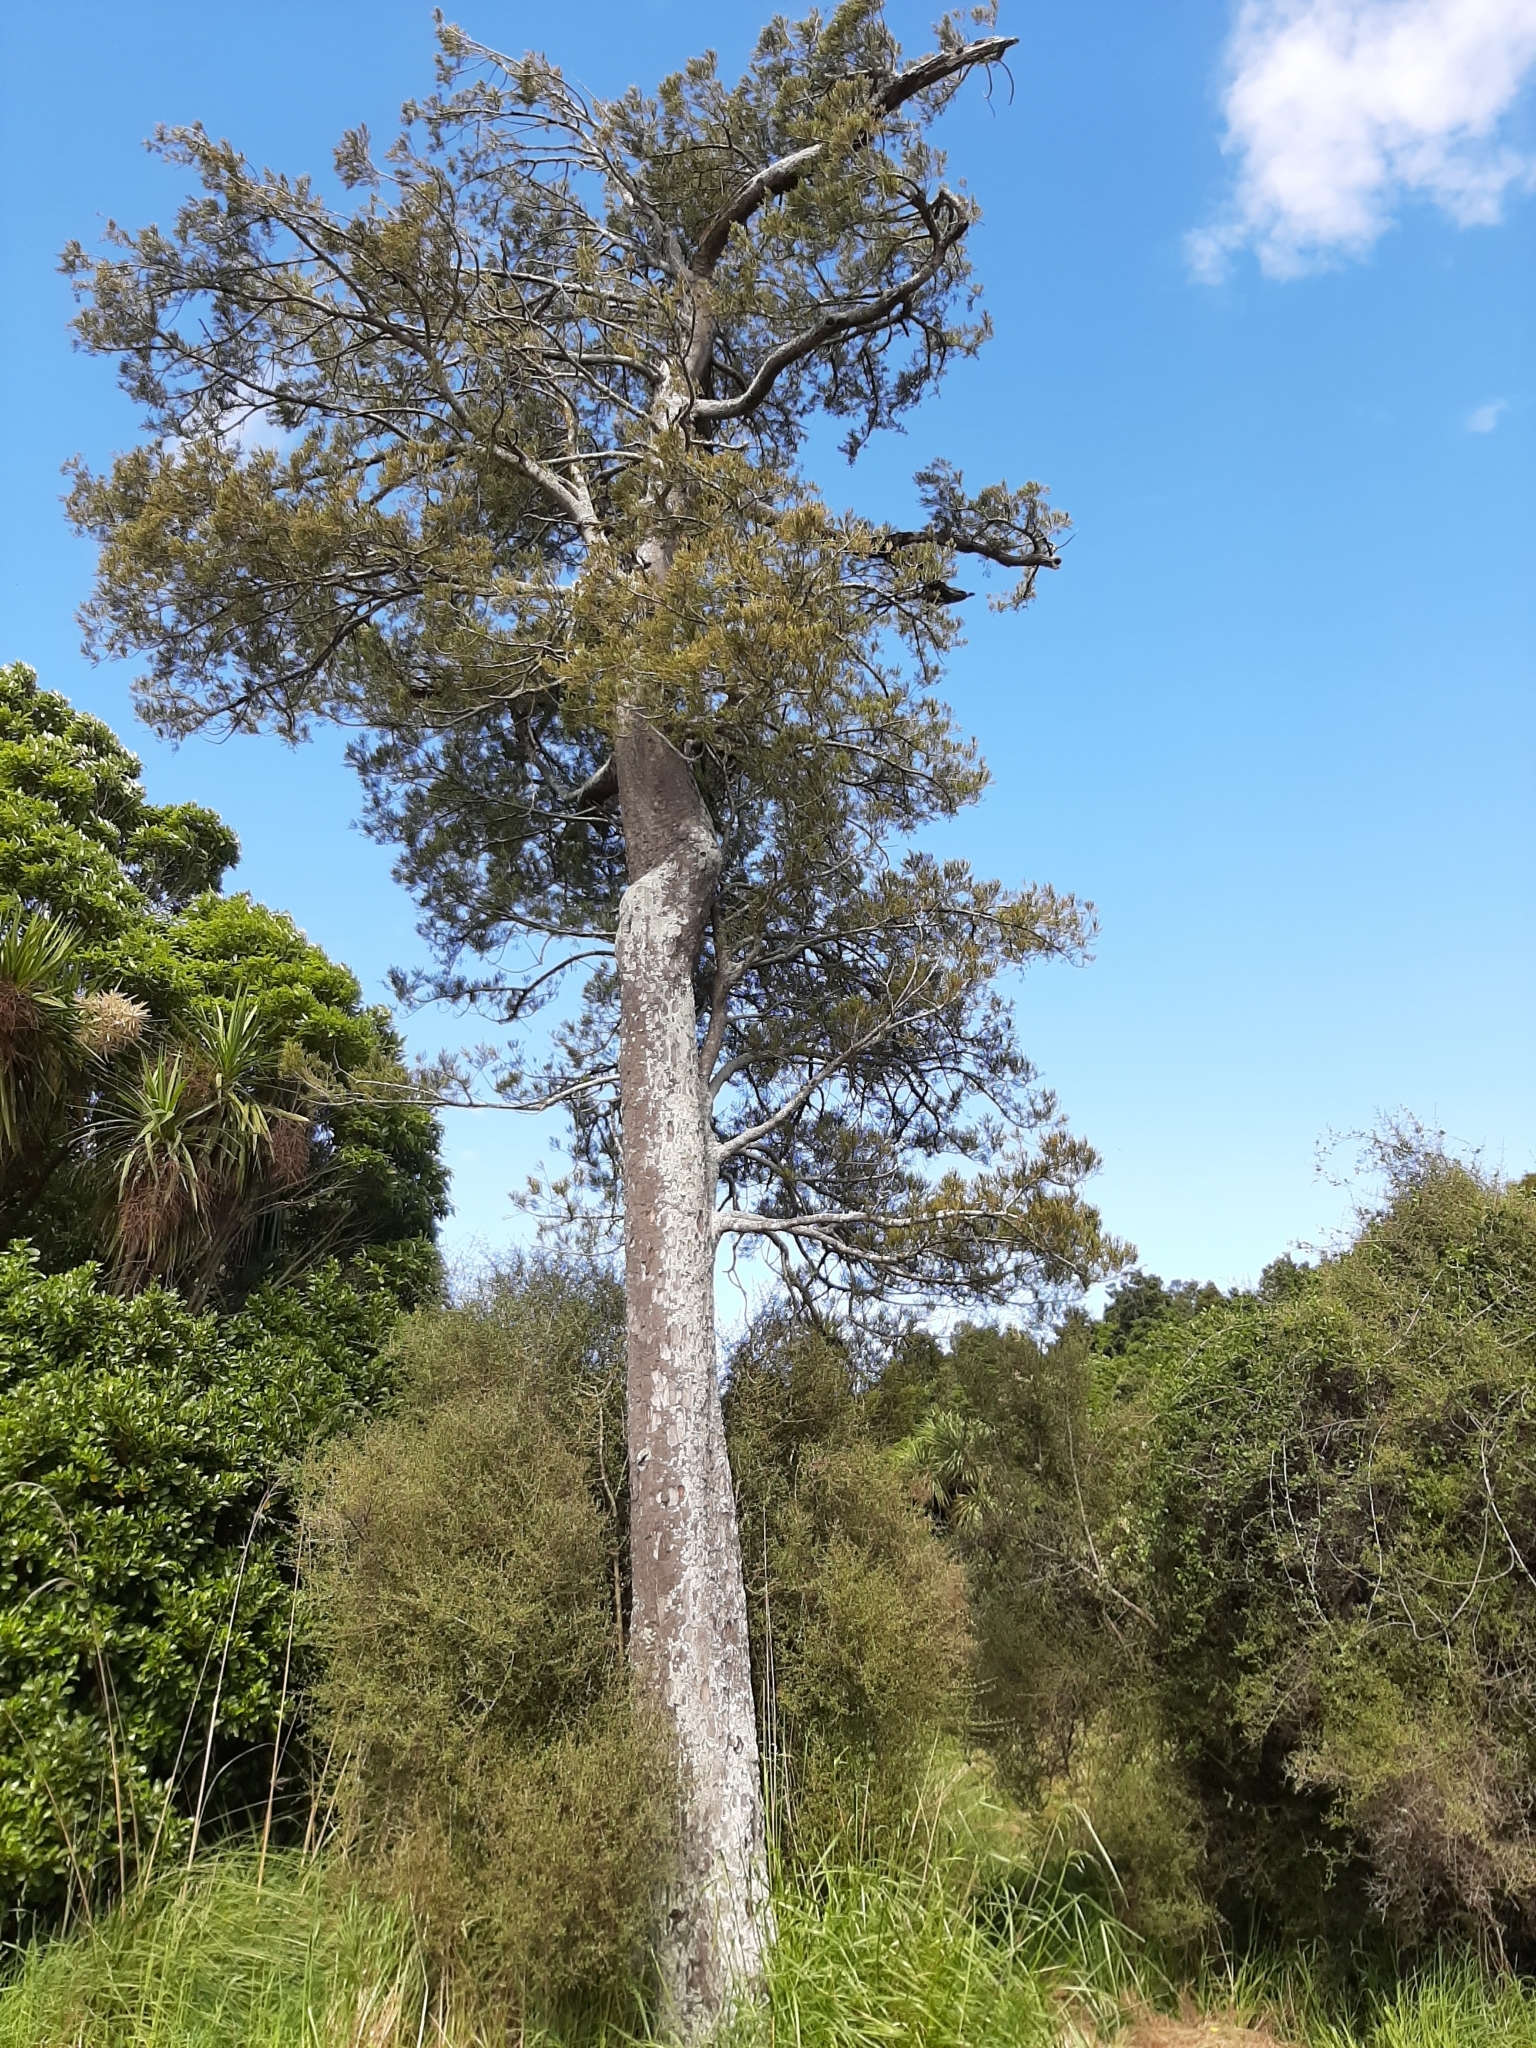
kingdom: Plantae
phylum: Tracheophyta
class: Pinopsida
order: Pinales
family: Podocarpaceae
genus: Dacrycarpus
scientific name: Dacrycarpus dacrydioides
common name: White pine
